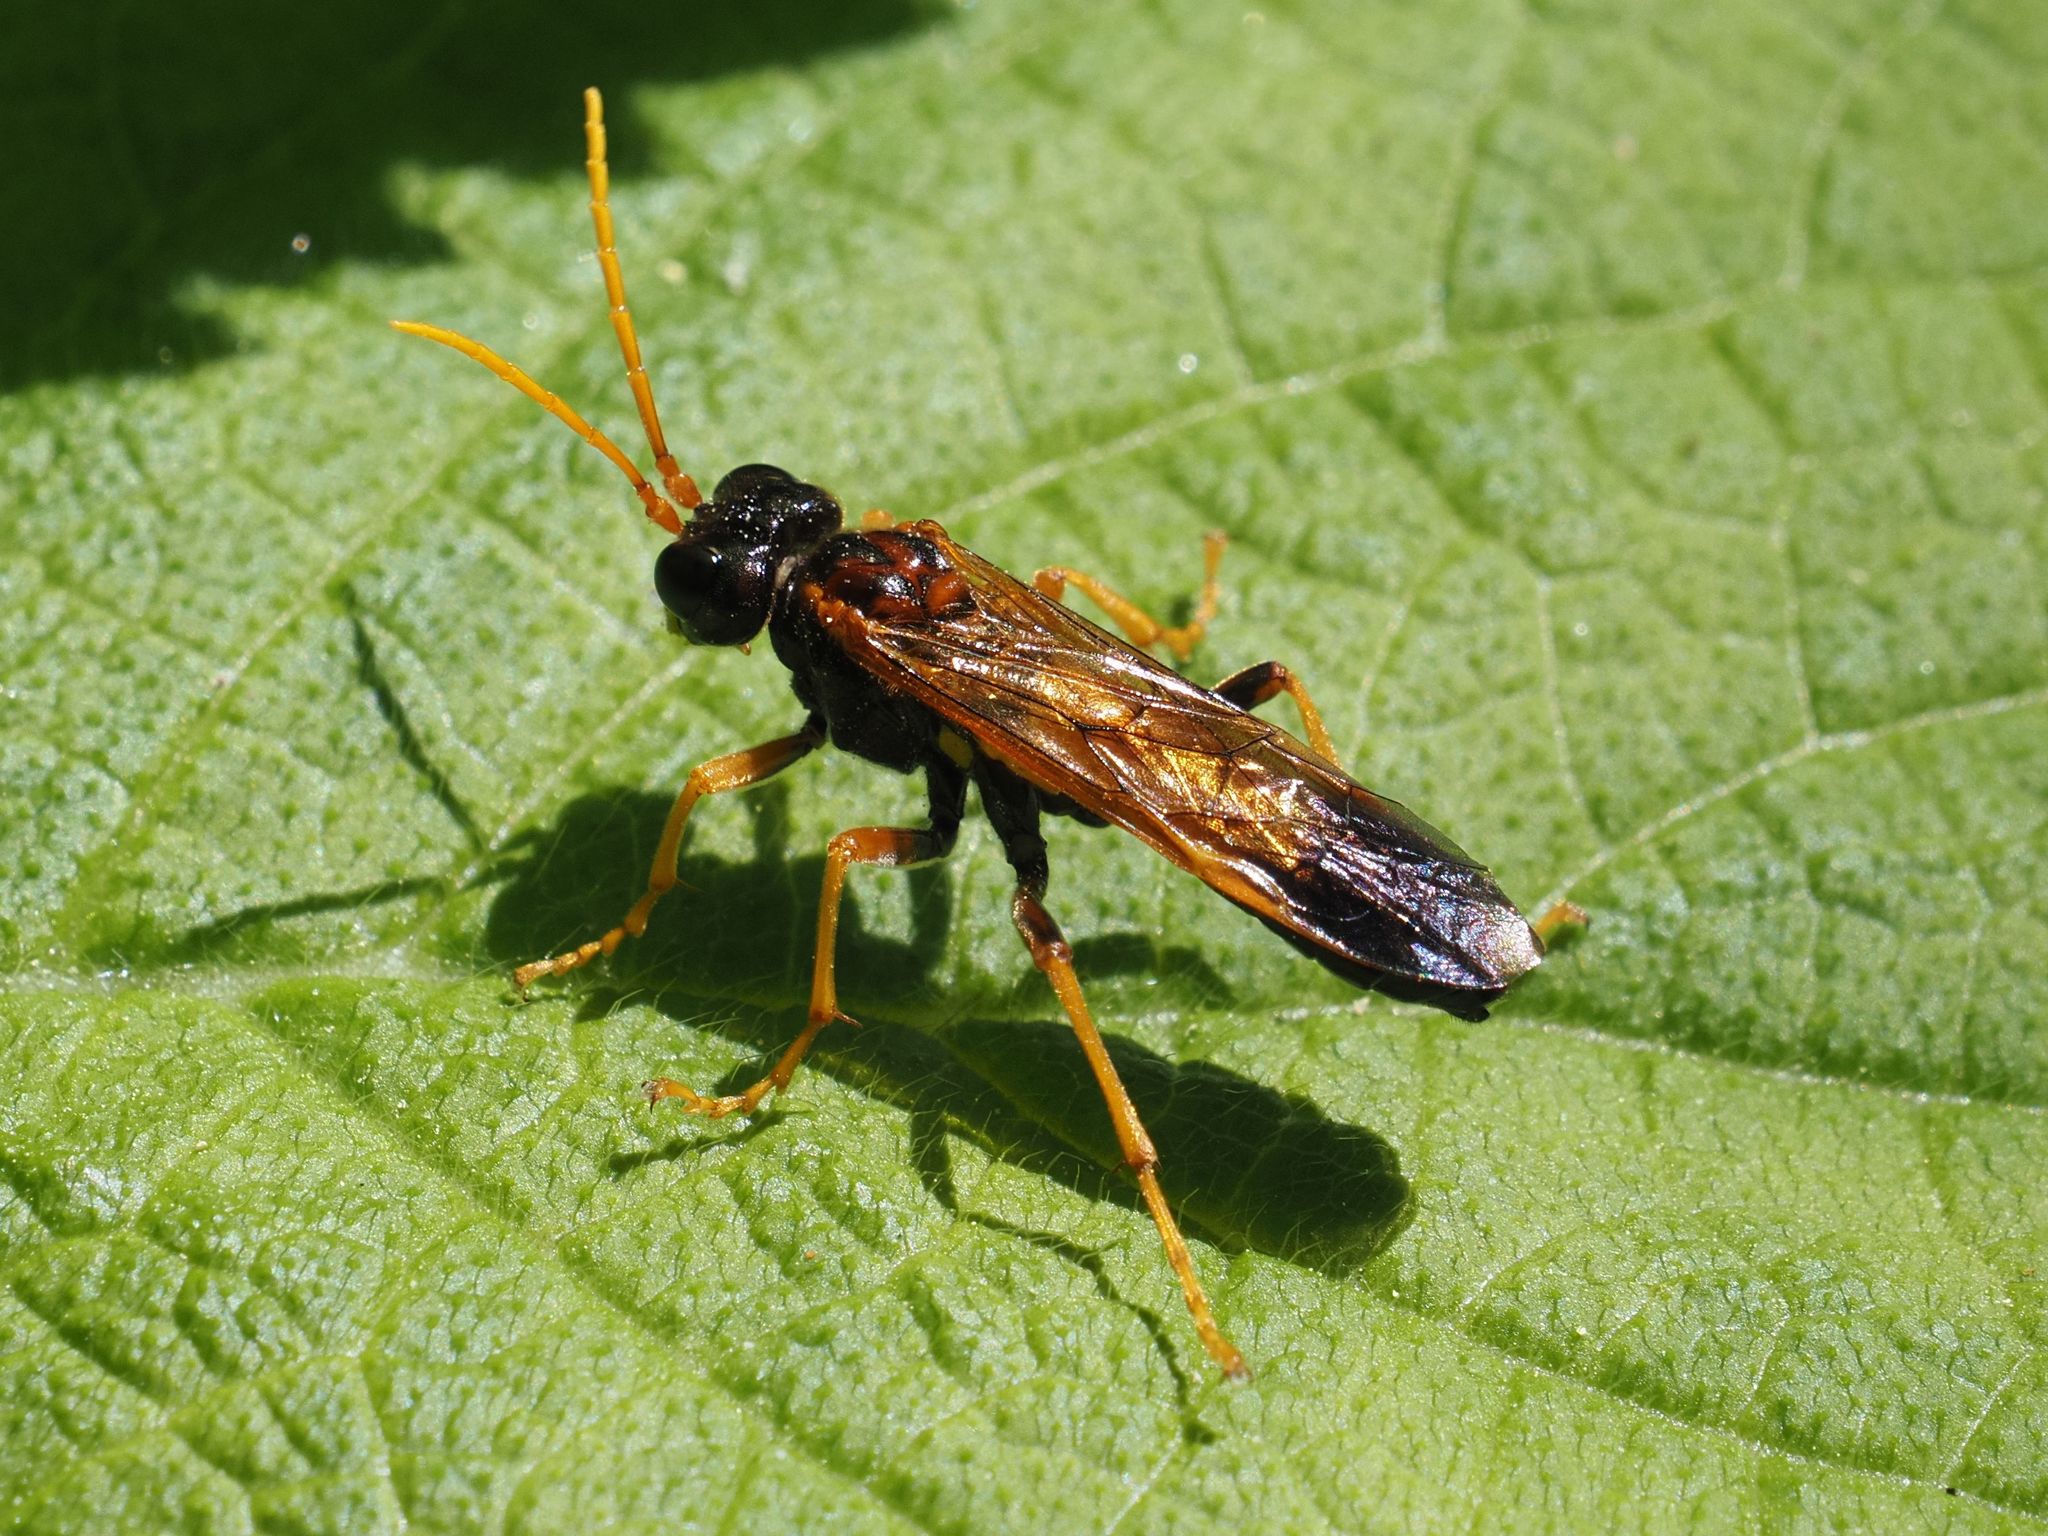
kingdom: Animalia
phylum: Arthropoda
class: Insecta
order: Hymenoptera
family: Tenthredinidae
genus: Tenthredo
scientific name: Tenthredo campestris
